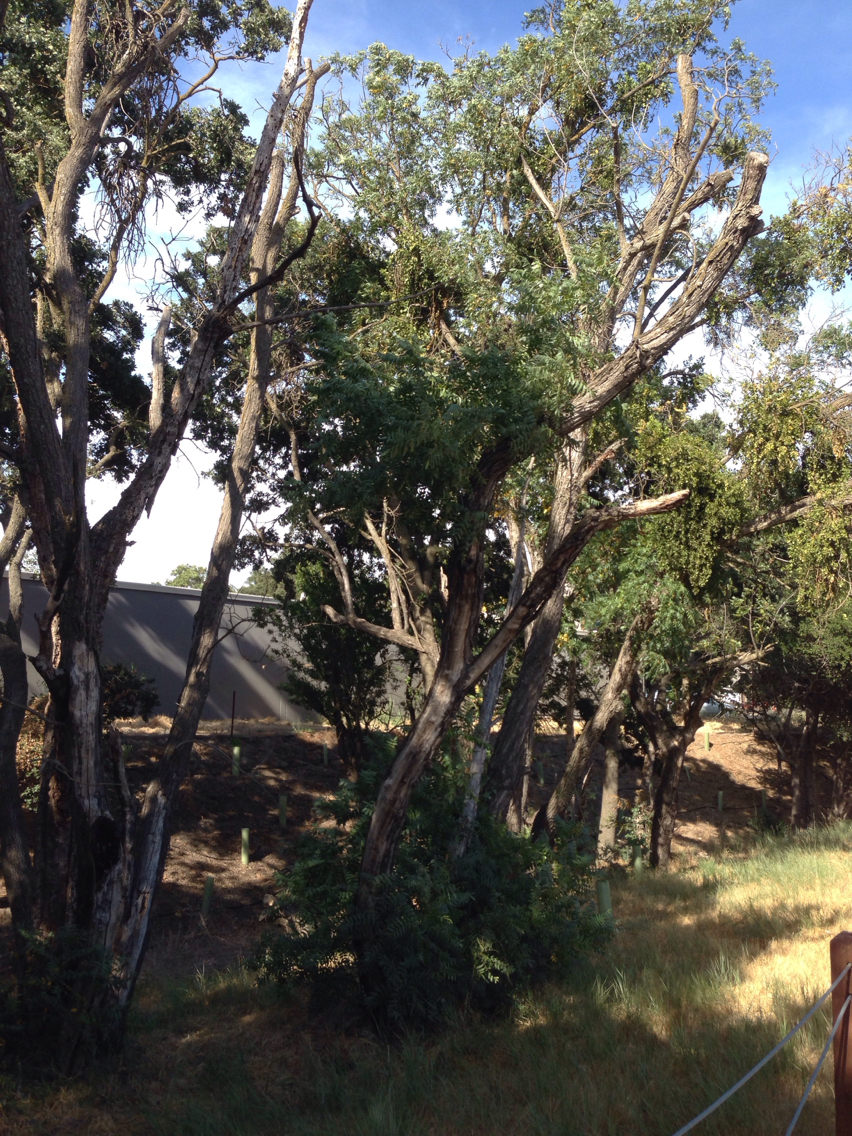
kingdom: Plantae
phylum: Tracheophyta
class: Magnoliopsida
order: Fagales
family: Juglandaceae
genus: Juglans
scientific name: Juglans hindsii
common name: Northern california black walnut
